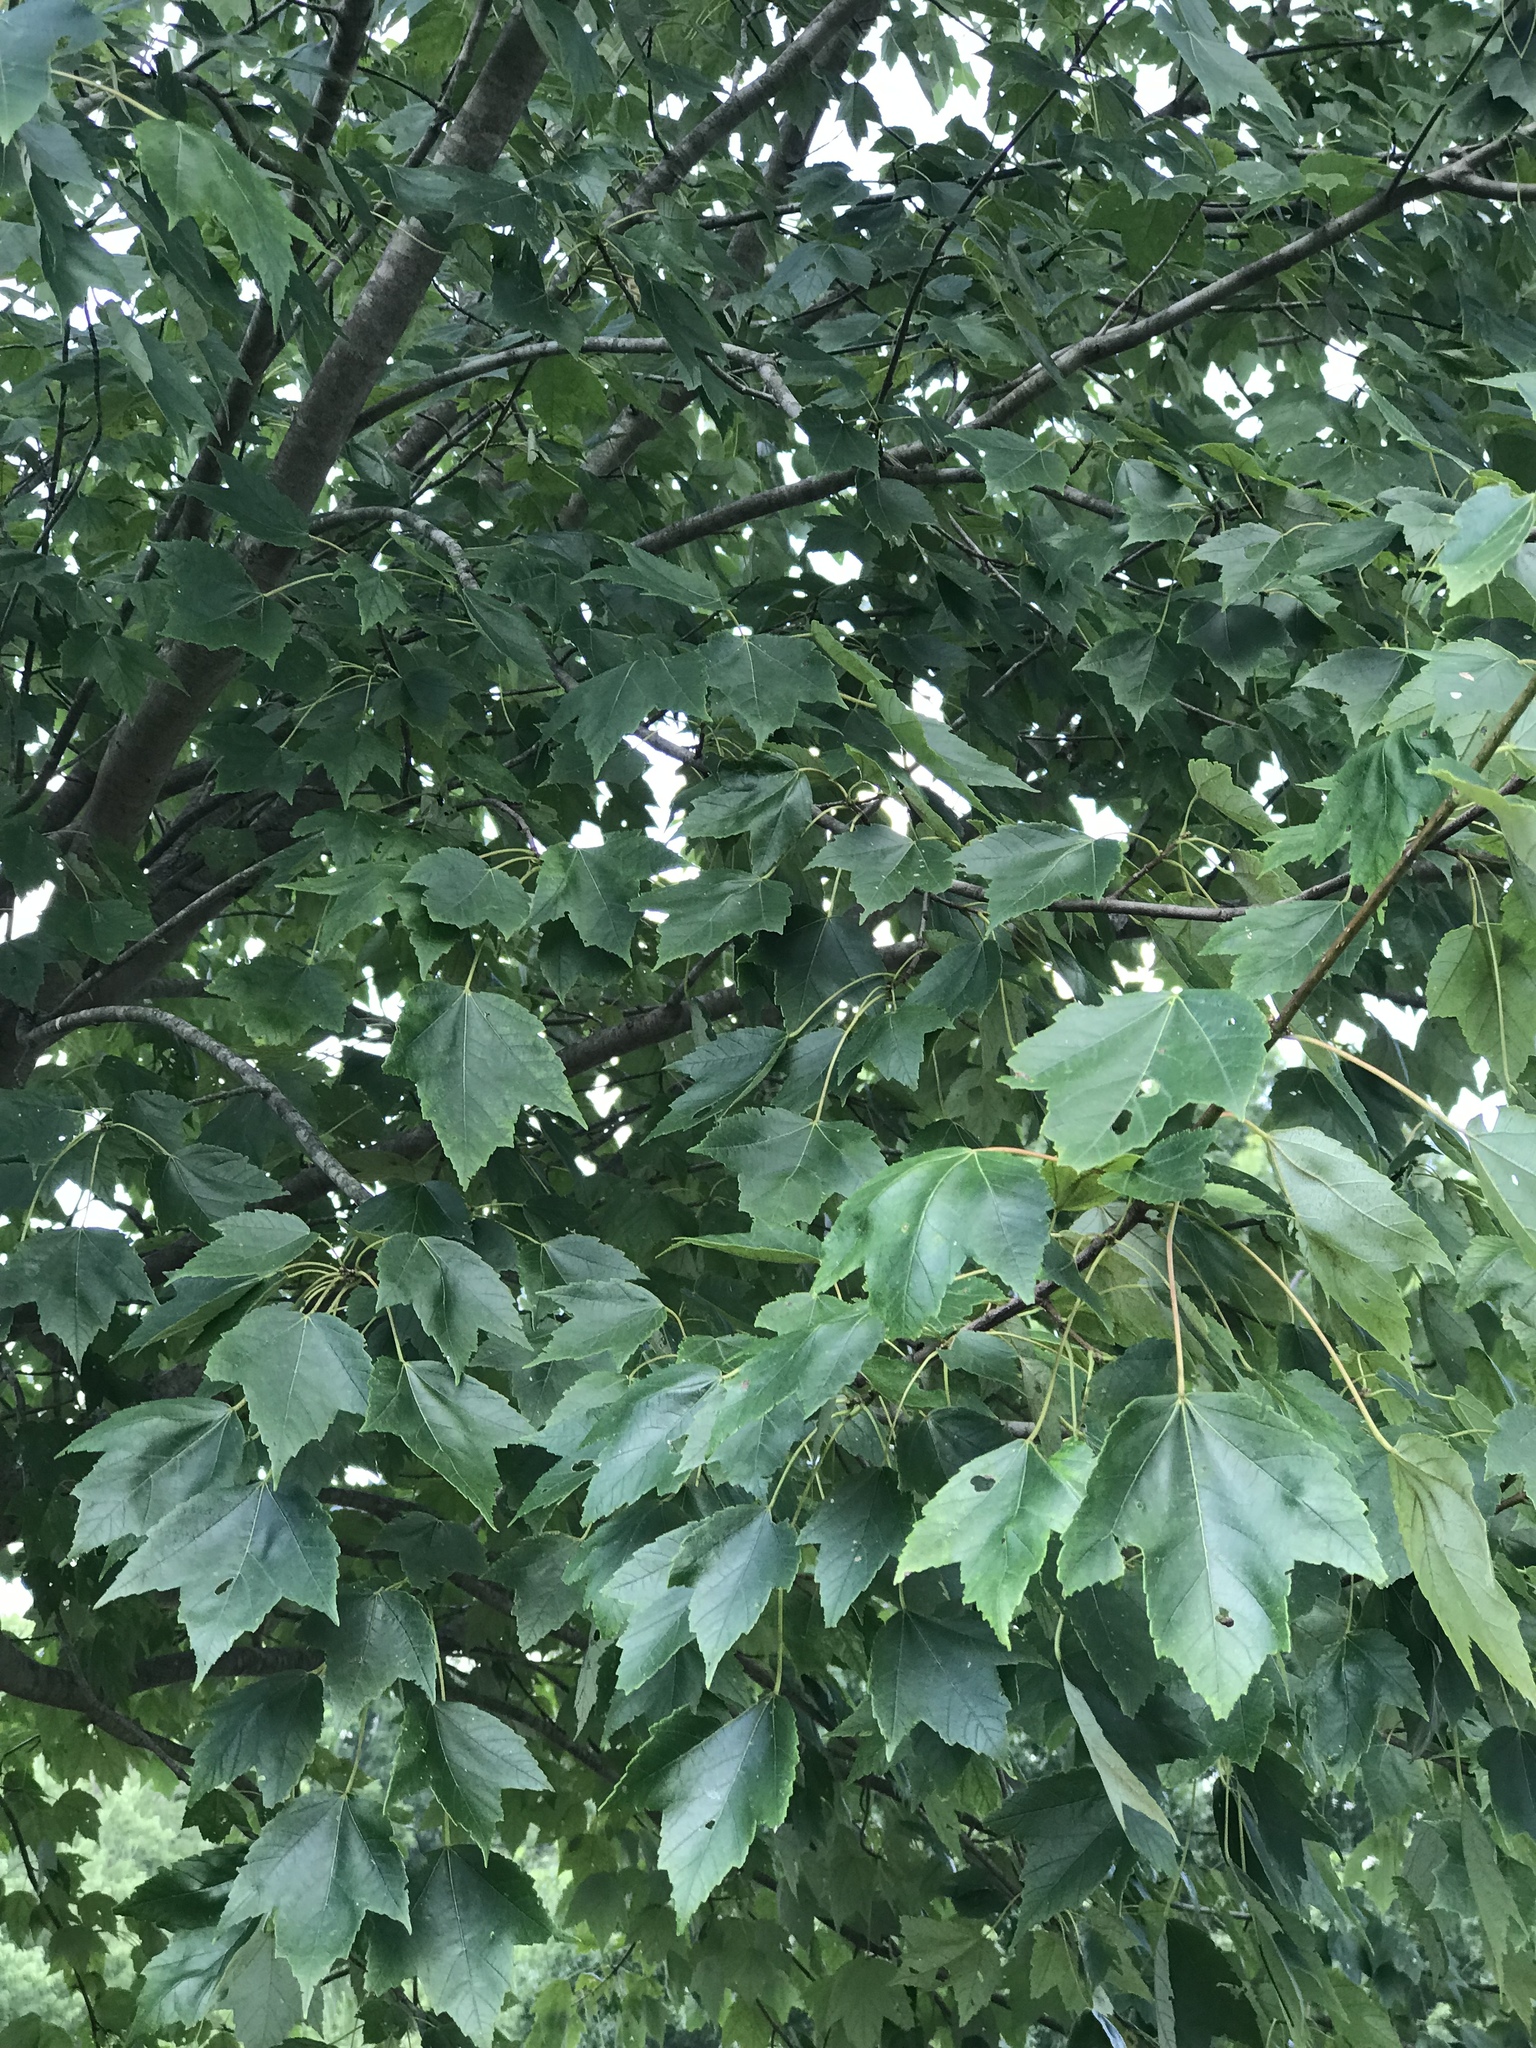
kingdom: Plantae
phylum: Tracheophyta
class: Magnoliopsida
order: Sapindales
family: Sapindaceae
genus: Acer
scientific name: Acer rubrum
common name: Red maple
